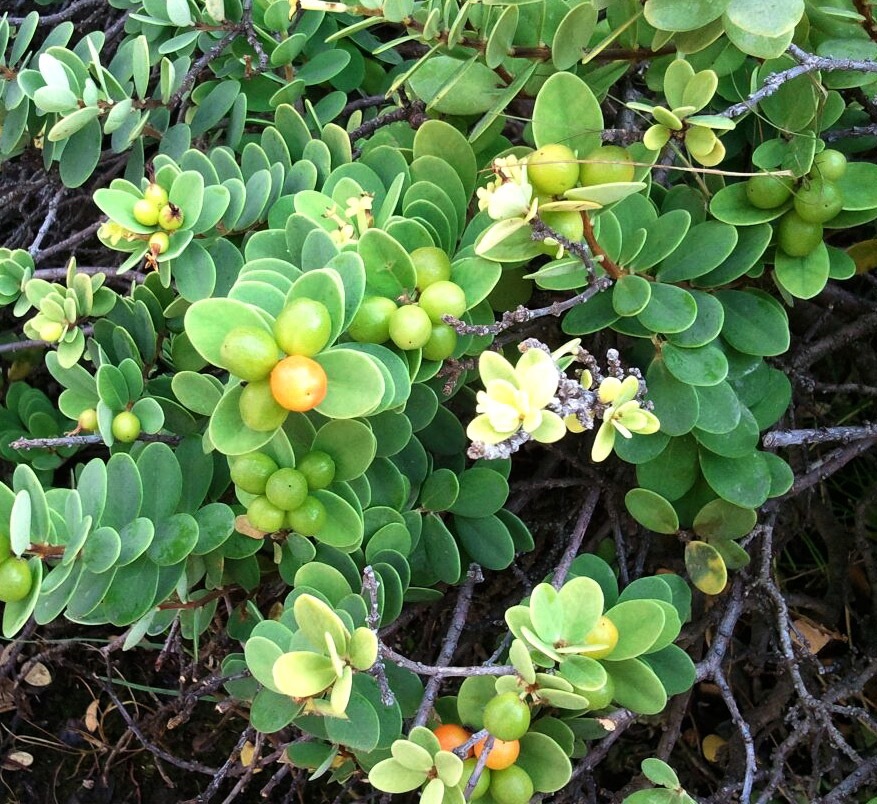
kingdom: Plantae
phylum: Tracheophyta
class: Magnoliopsida
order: Malvales
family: Thymelaeaceae
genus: Wikstroemia
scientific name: Wikstroemia uva-ursi
